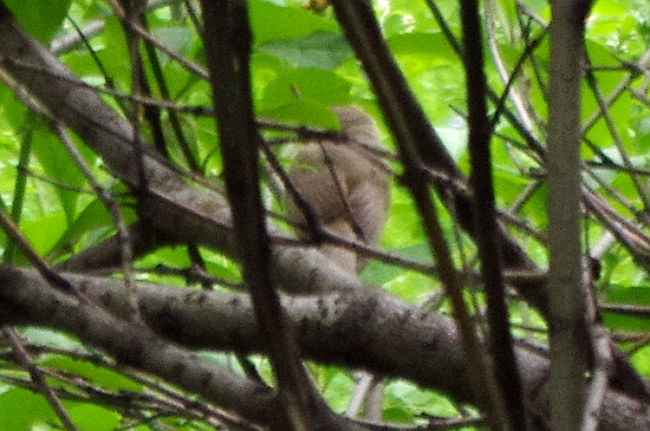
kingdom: Animalia
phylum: Chordata
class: Aves
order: Passeriformes
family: Acrocephalidae
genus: Acrocephalus
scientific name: Acrocephalus dumetorum
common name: Blyth's reed warbler
